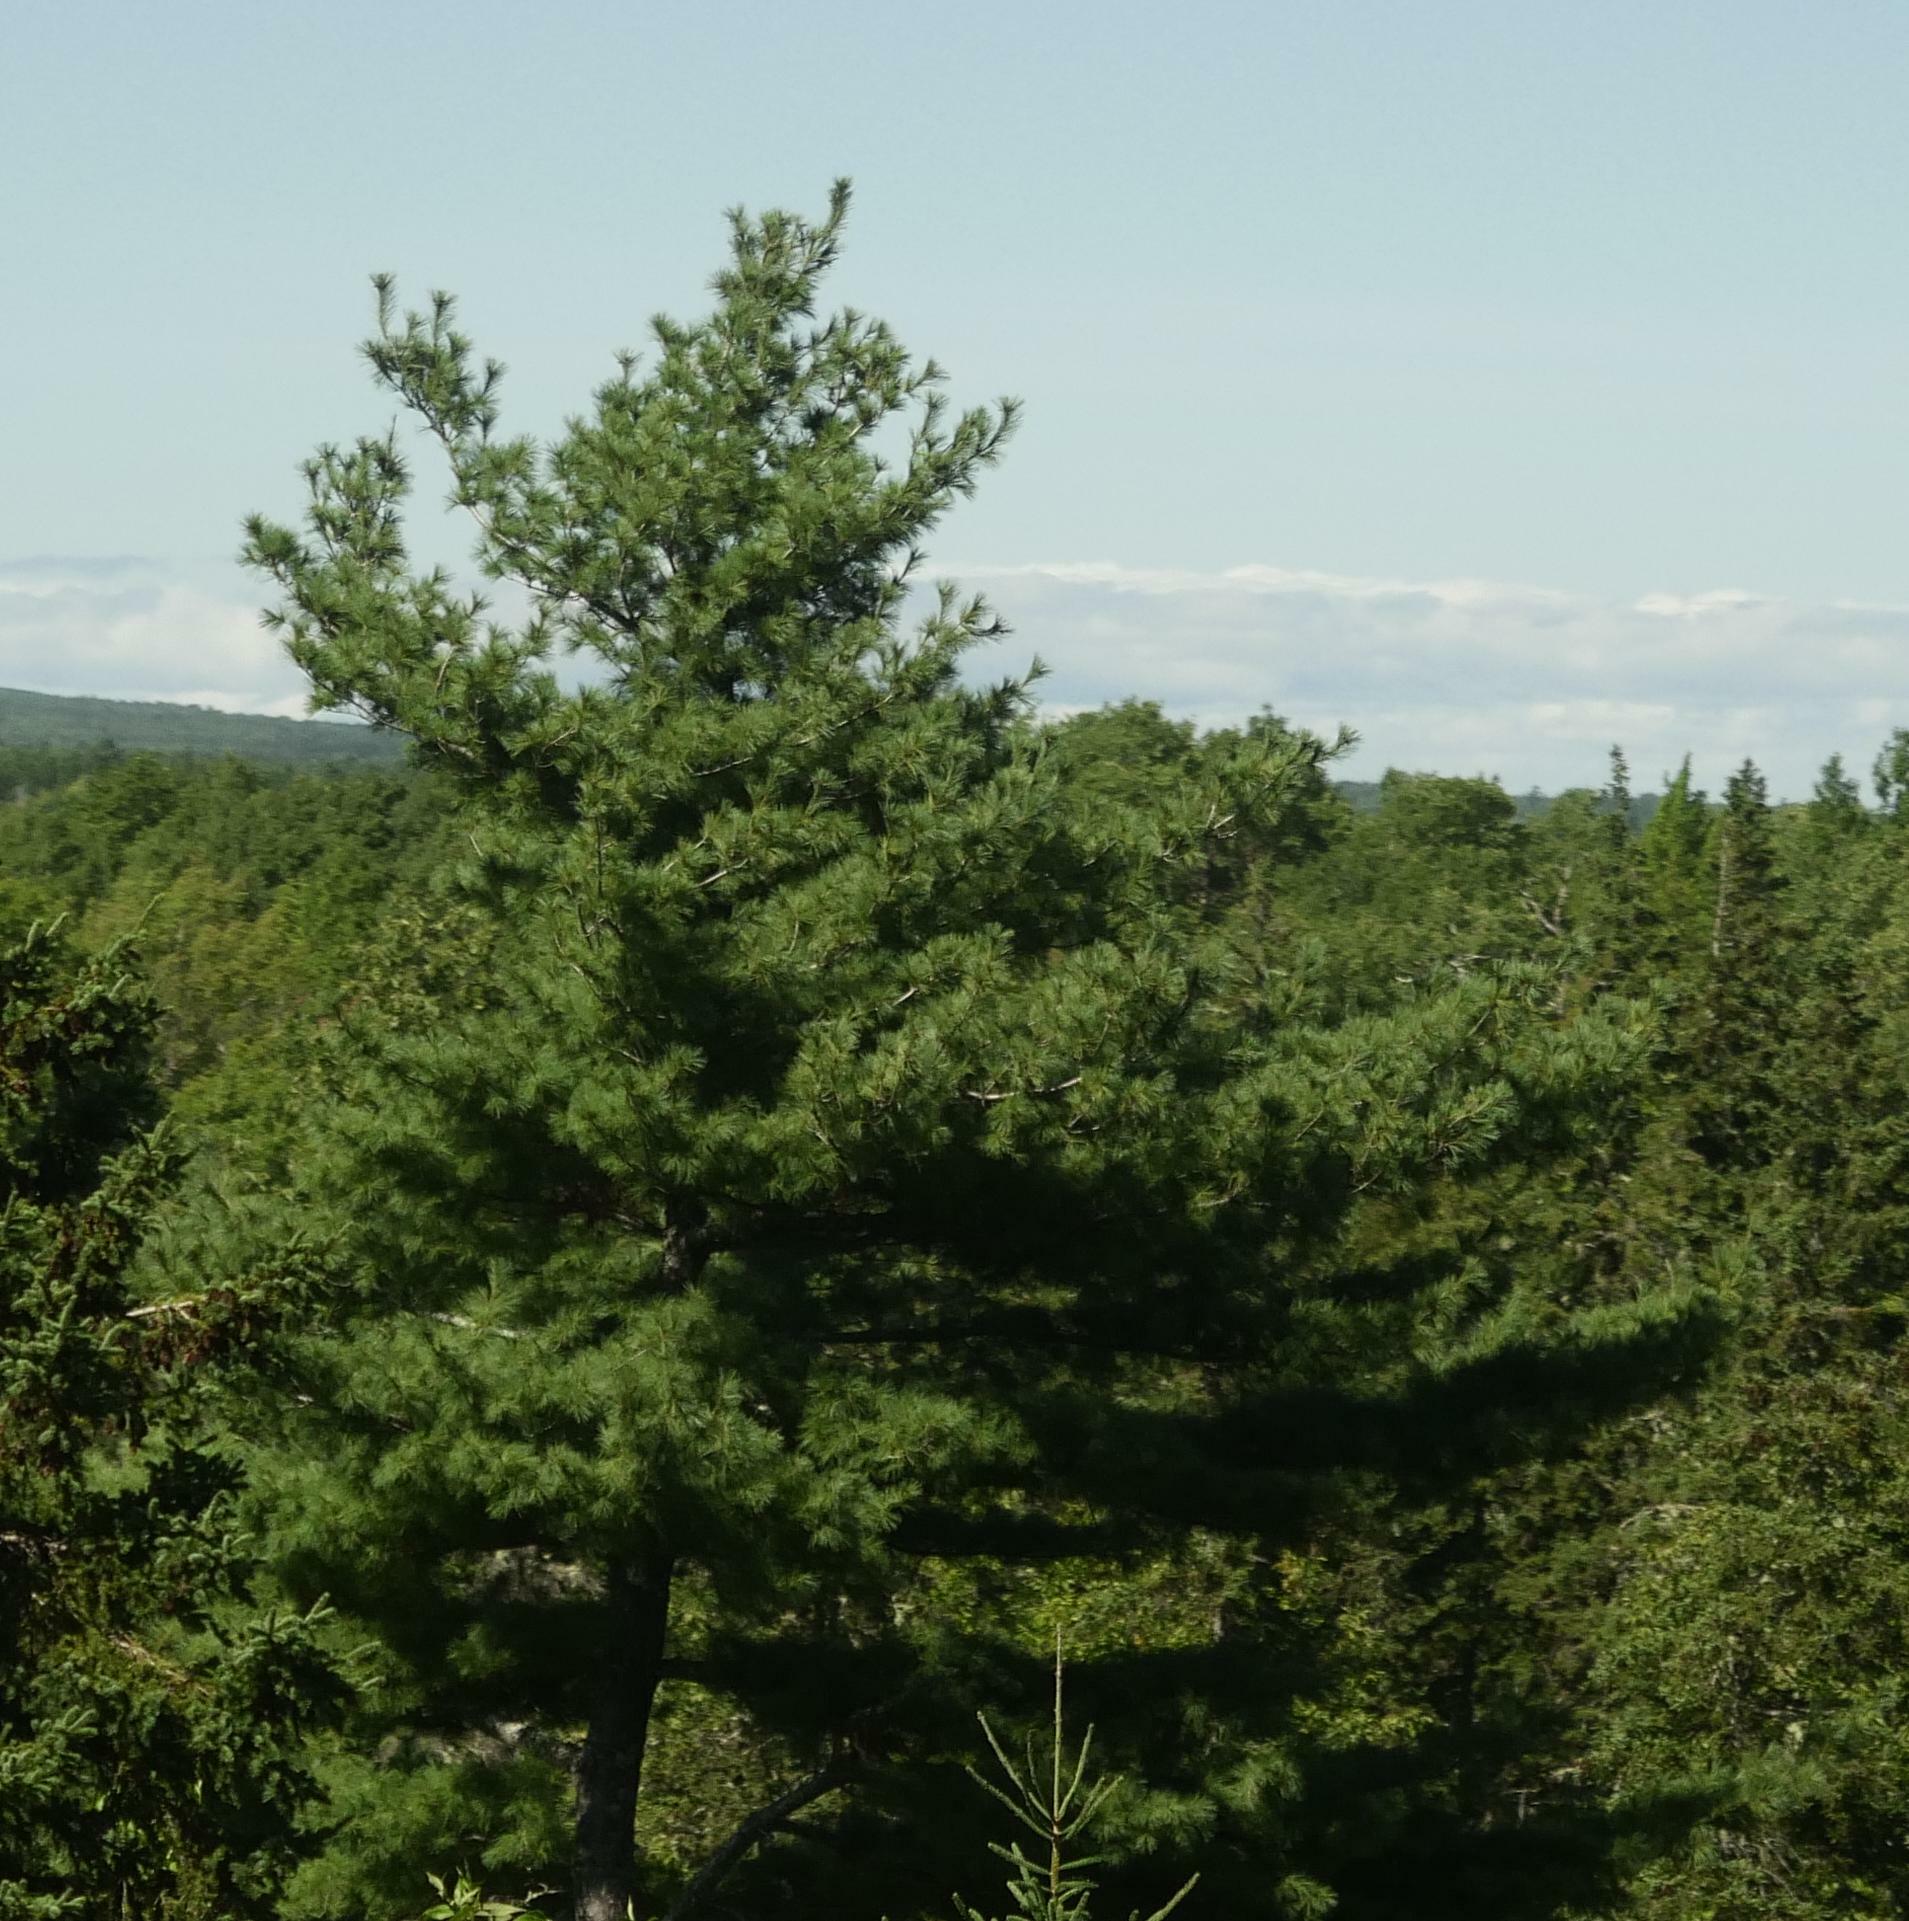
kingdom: Plantae
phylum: Tracheophyta
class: Pinopsida
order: Pinales
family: Pinaceae
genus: Pinus
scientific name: Pinus strobus
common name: Weymouth pine
